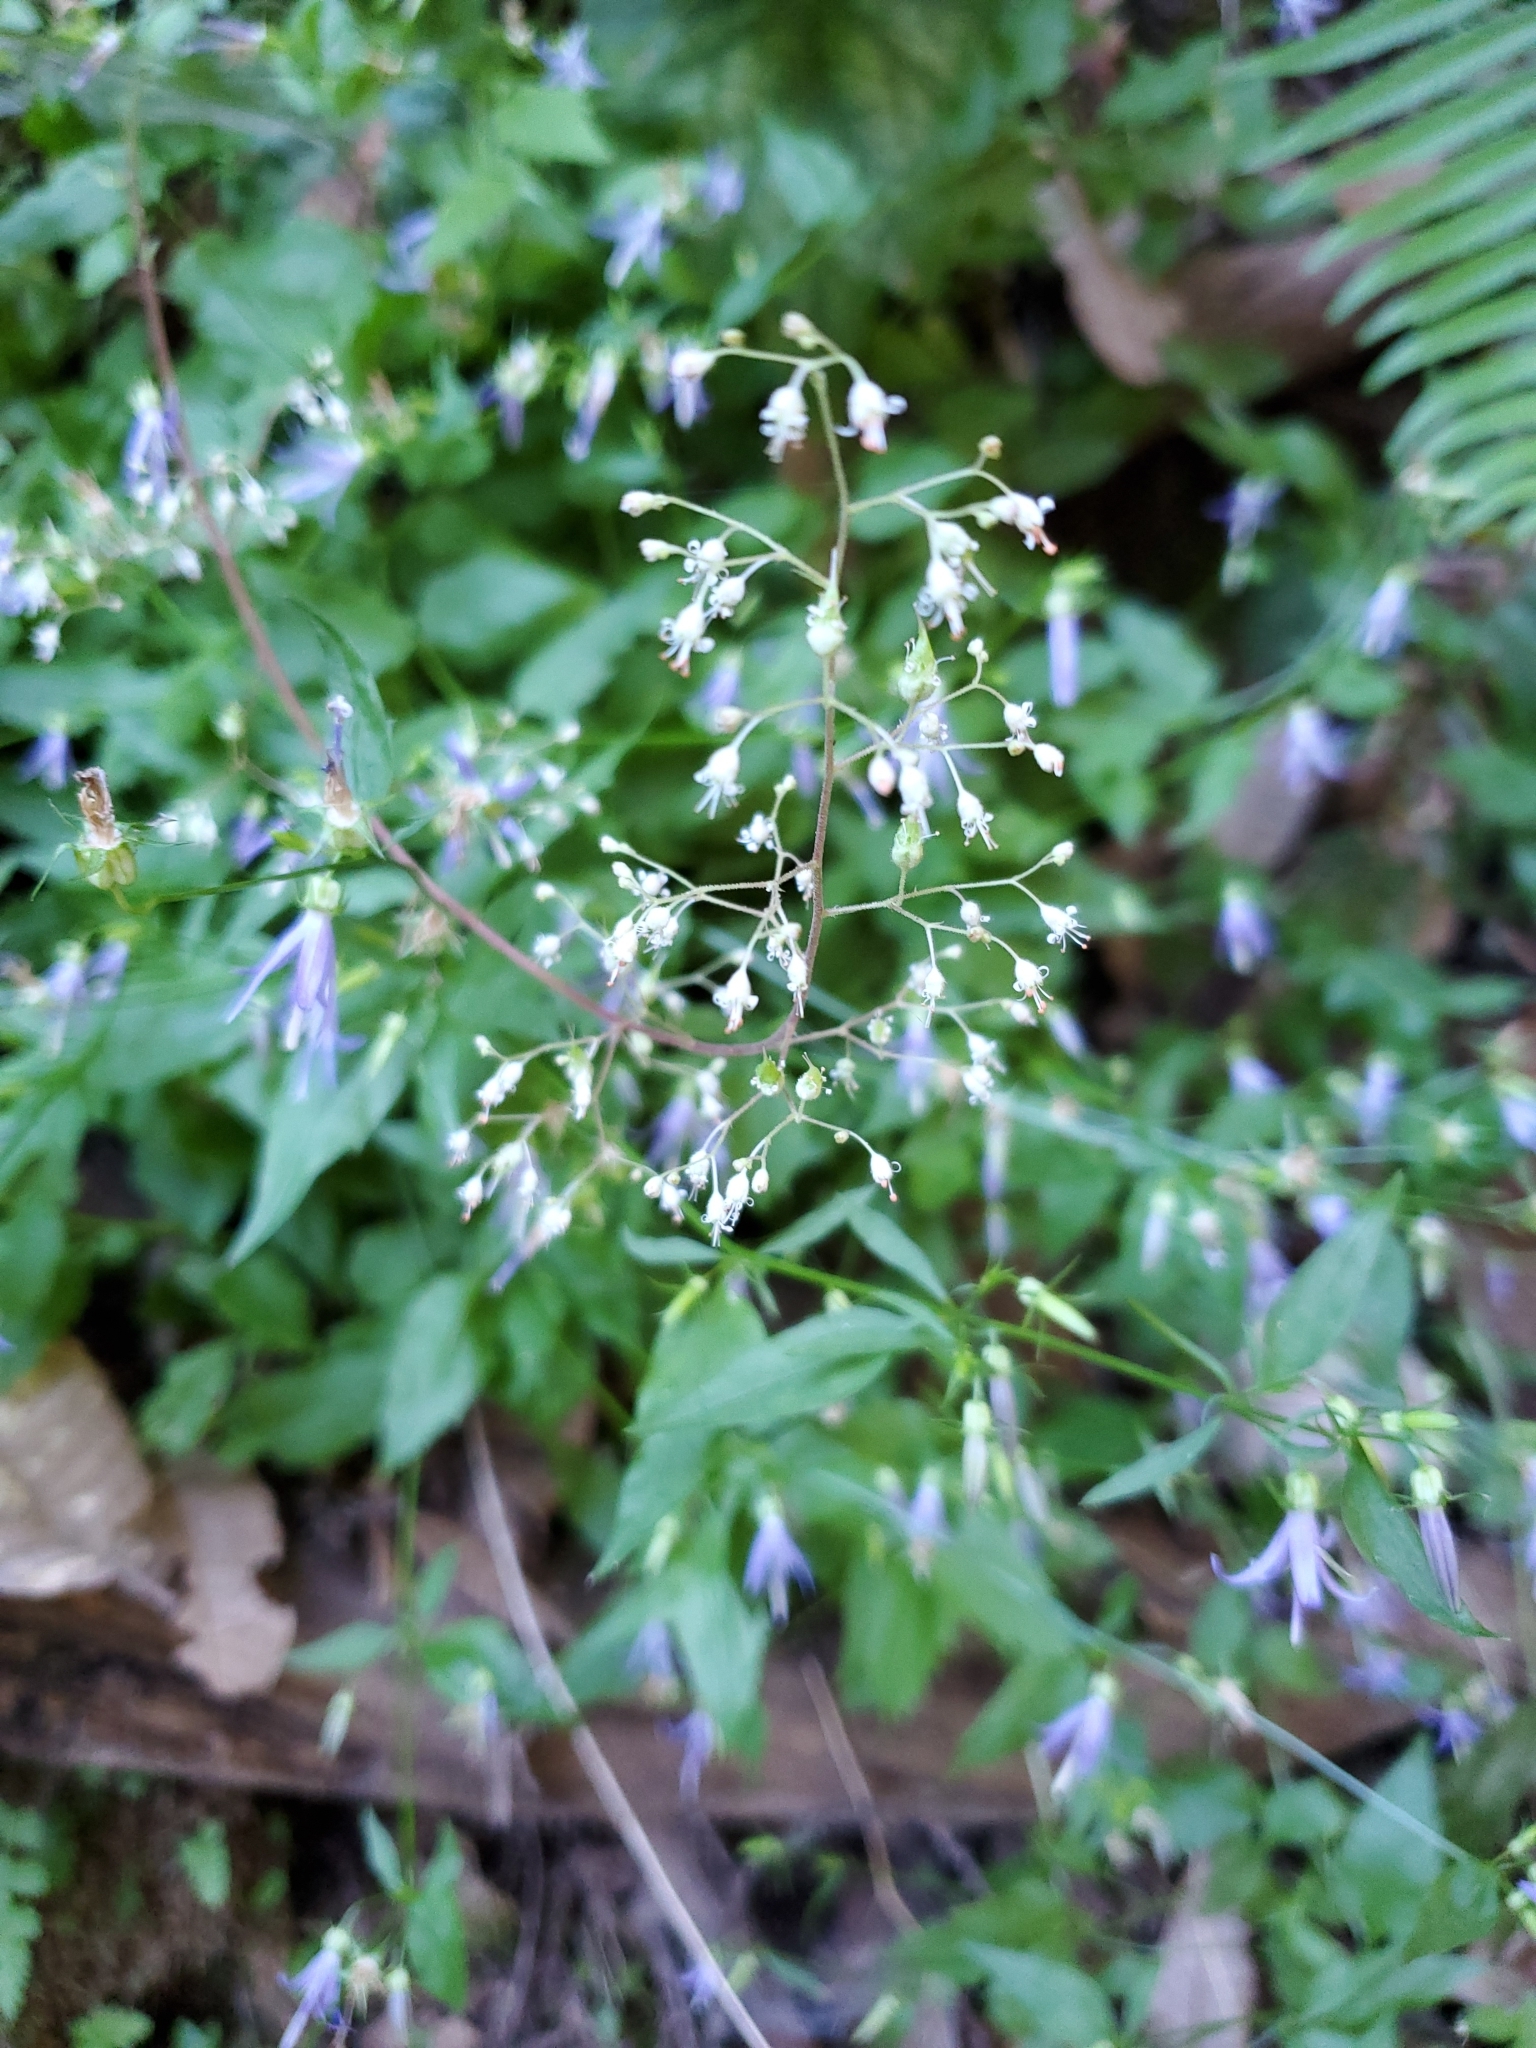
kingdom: Plantae
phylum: Tracheophyta
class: Magnoliopsida
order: Saxifragales
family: Saxifragaceae
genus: Heuchera
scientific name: Heuchera micrantha
